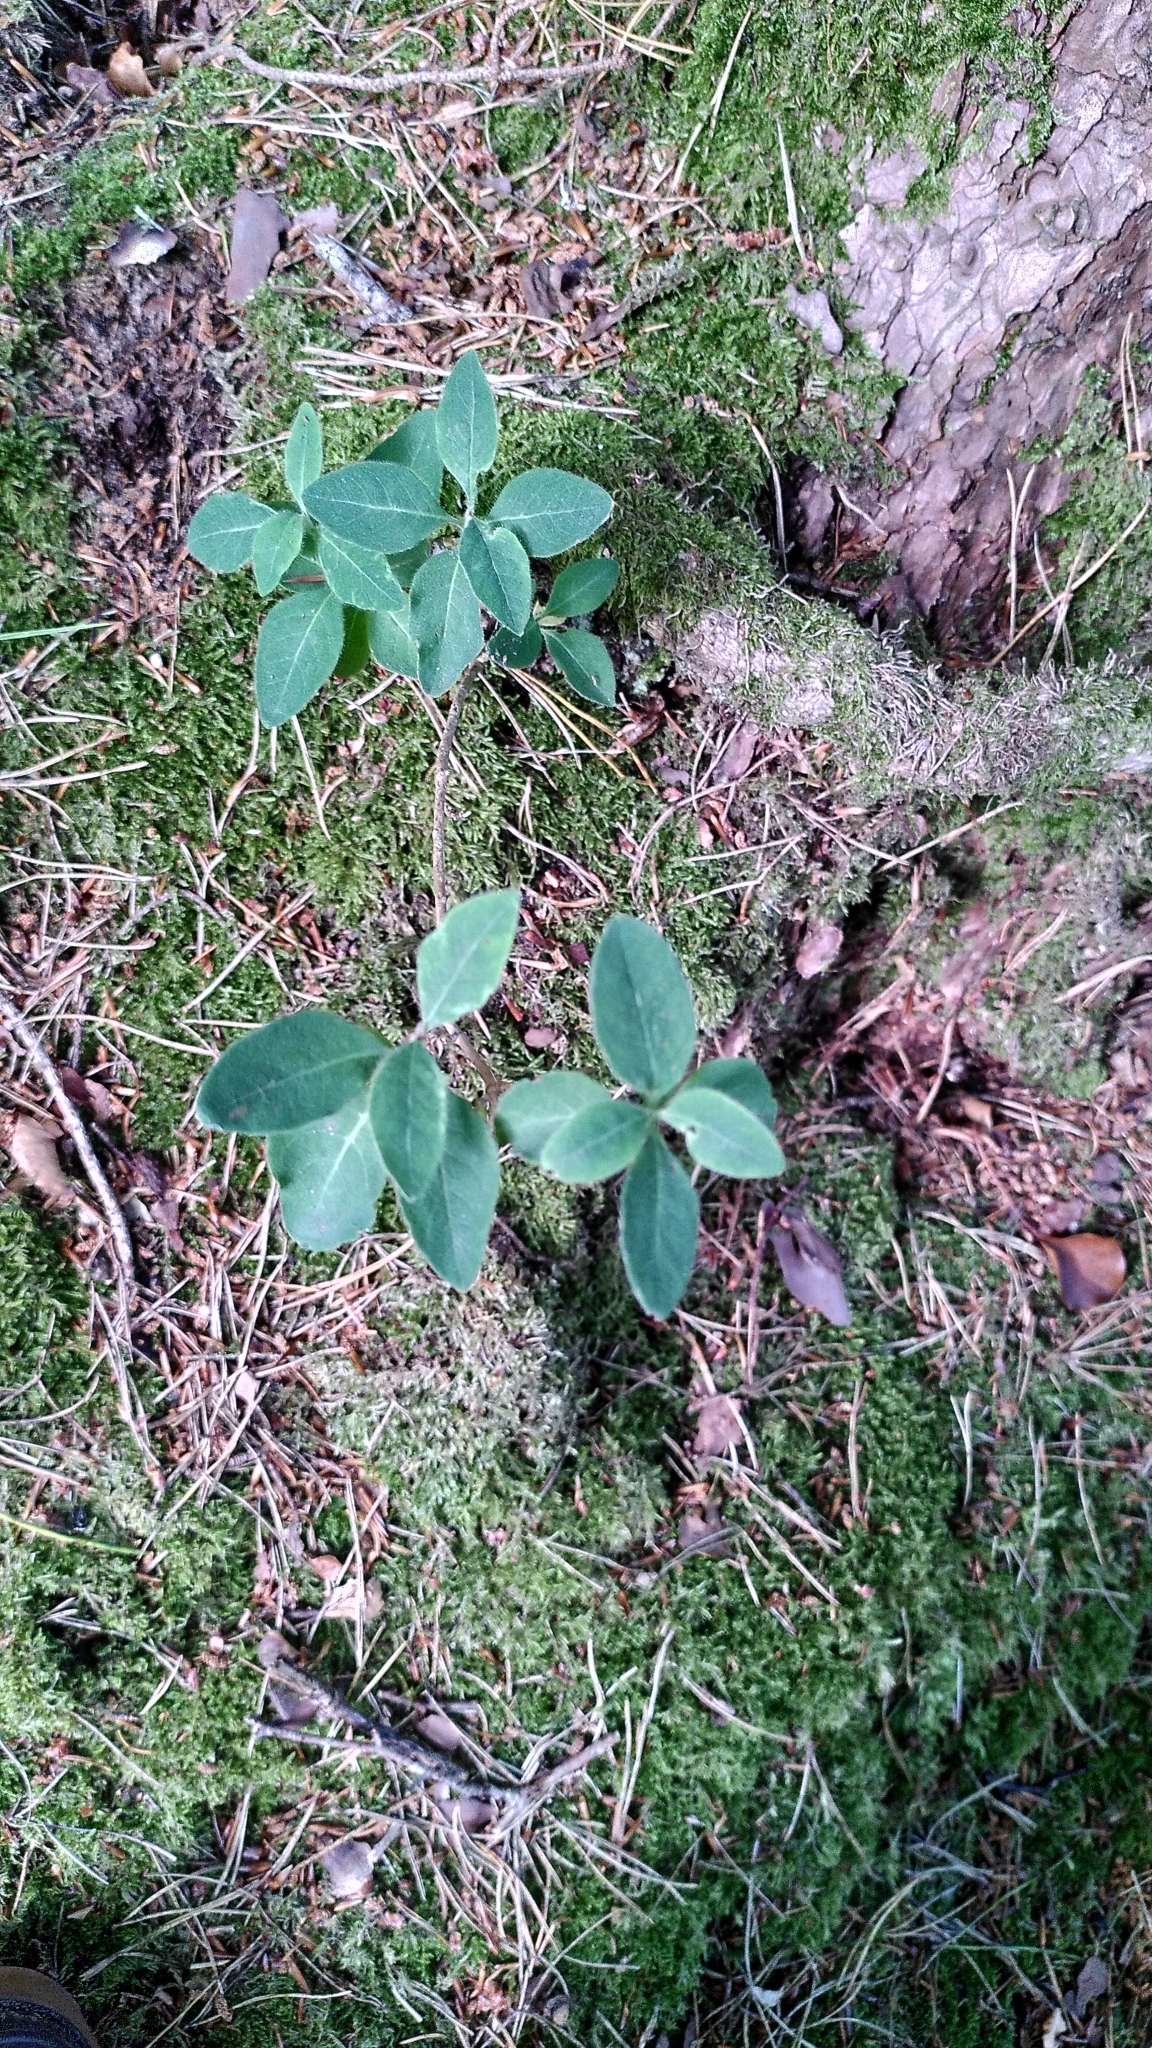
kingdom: Plantae
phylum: Tracheophyta
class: Magnoliopsida
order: Dipsacales
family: Caprifoliaceae
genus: Lonicera
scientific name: Lonicera xylosteum
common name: Fly honeysuckle
